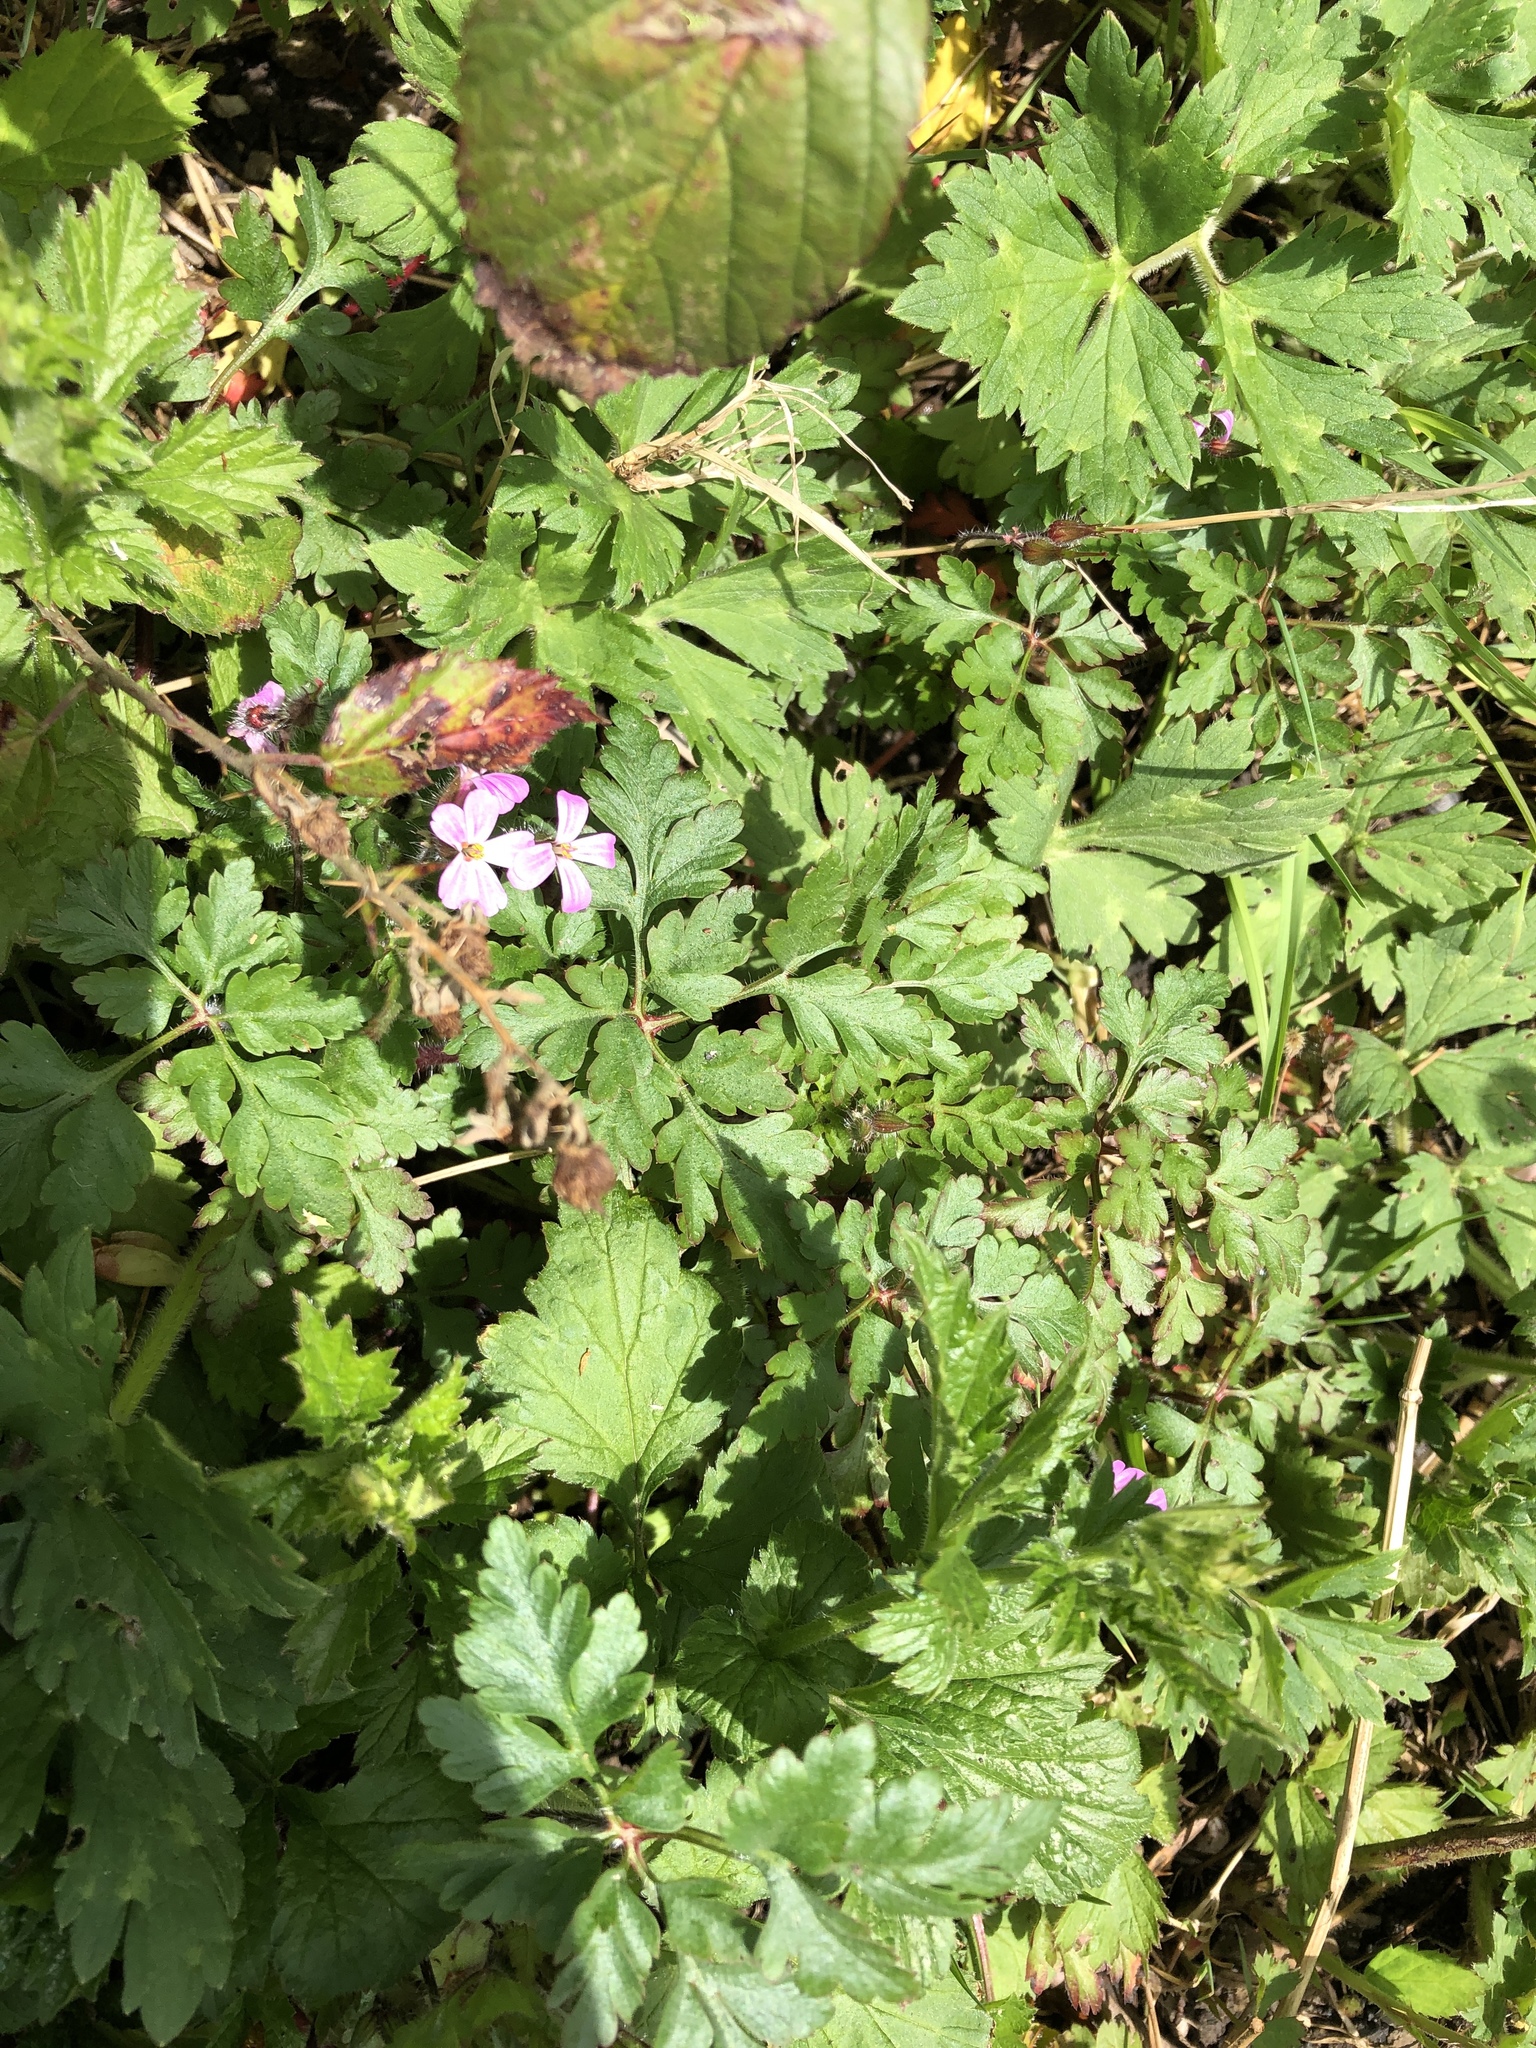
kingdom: Plantae
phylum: Tracheophyta
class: Magnoliopsida
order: Geraniales
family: Geraniaceae
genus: Geranium
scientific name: Geranium robertianum
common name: Herb-robert
